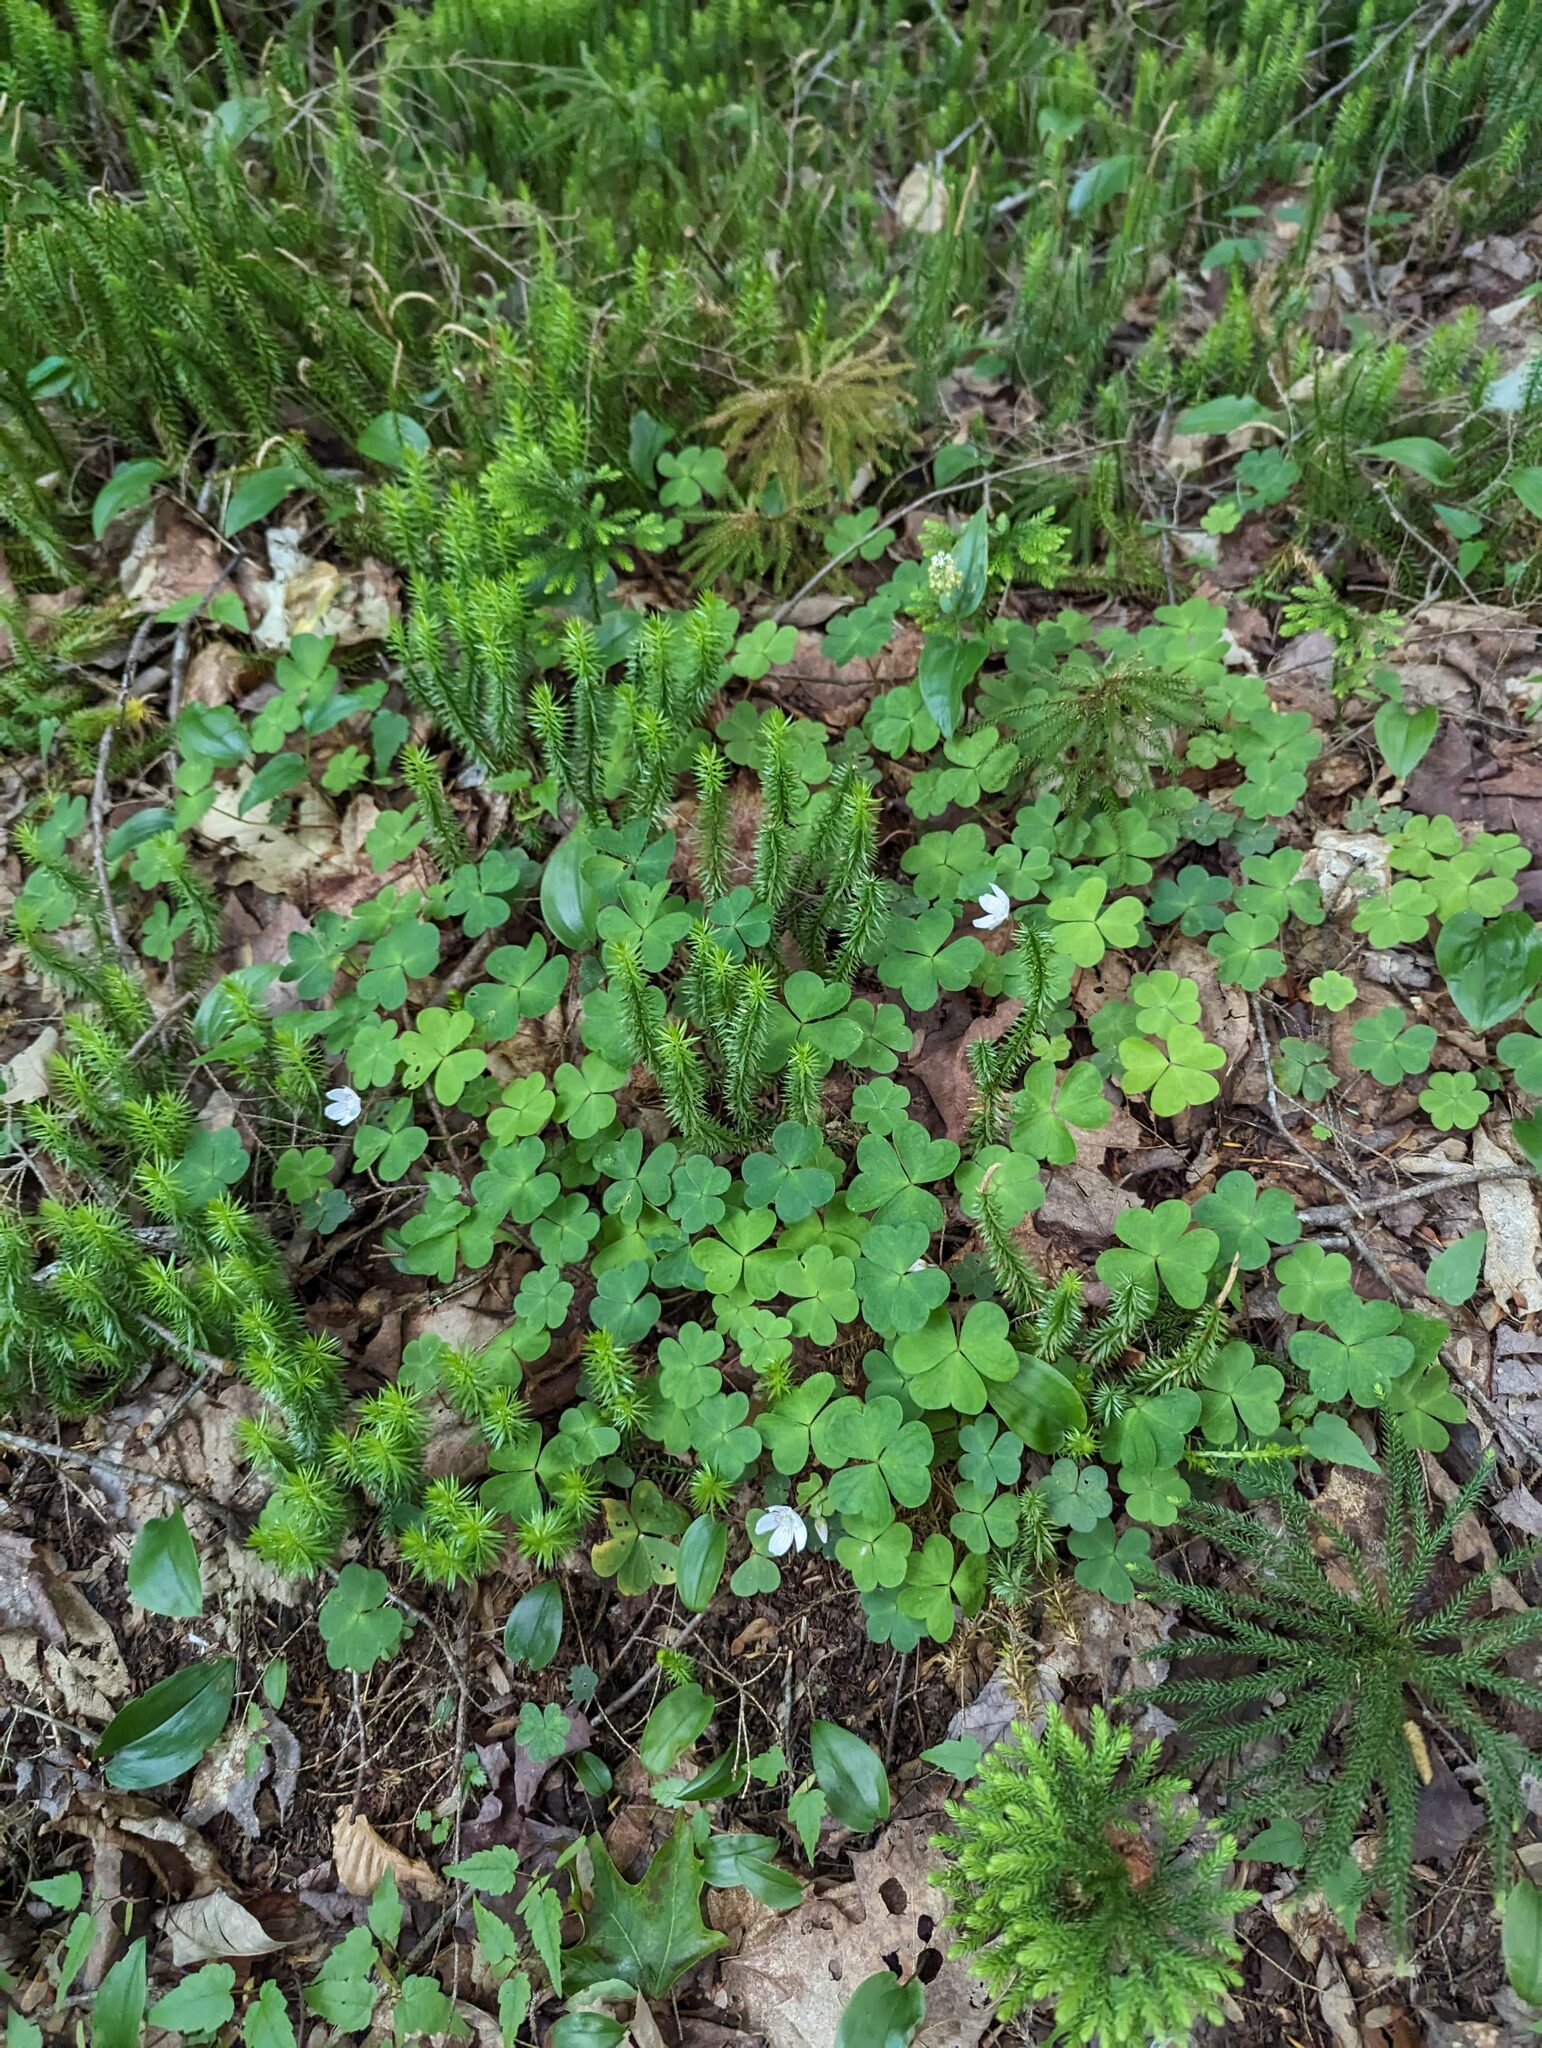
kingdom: Plantae
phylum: Tracheophyta
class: Magnoliopsida
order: Oxalidales
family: Oxalidaceae
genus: Oxalis
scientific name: Oxalis montana
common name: American wood-sorrel
